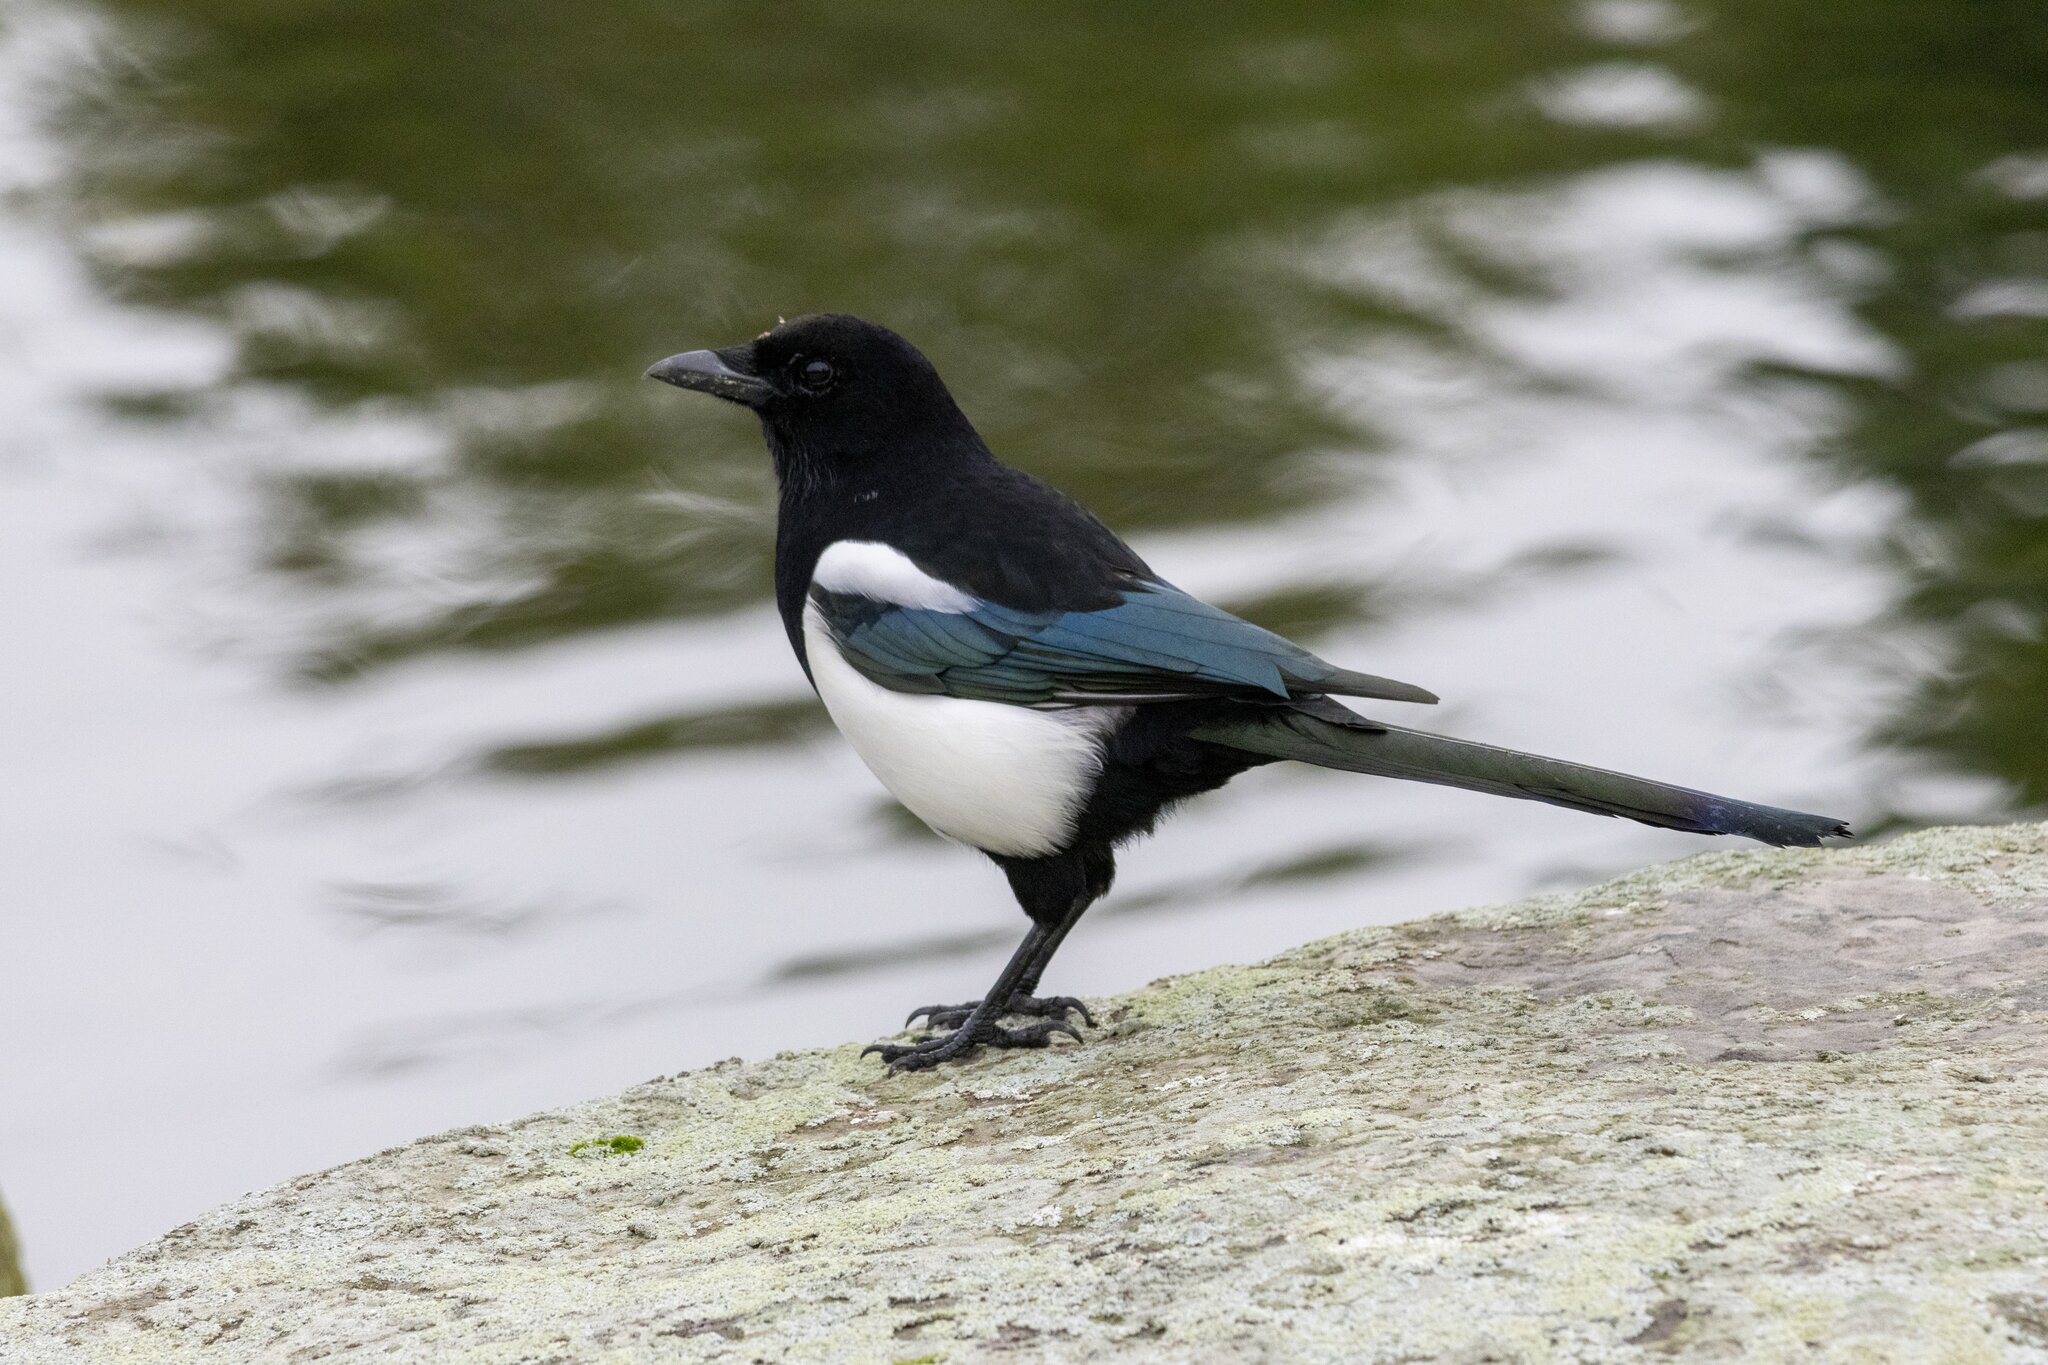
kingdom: Animalia
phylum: Chordata
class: Aves
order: Passeriformes
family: Corvidae
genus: Pica
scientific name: Pica pica
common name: Eurasian magpie
